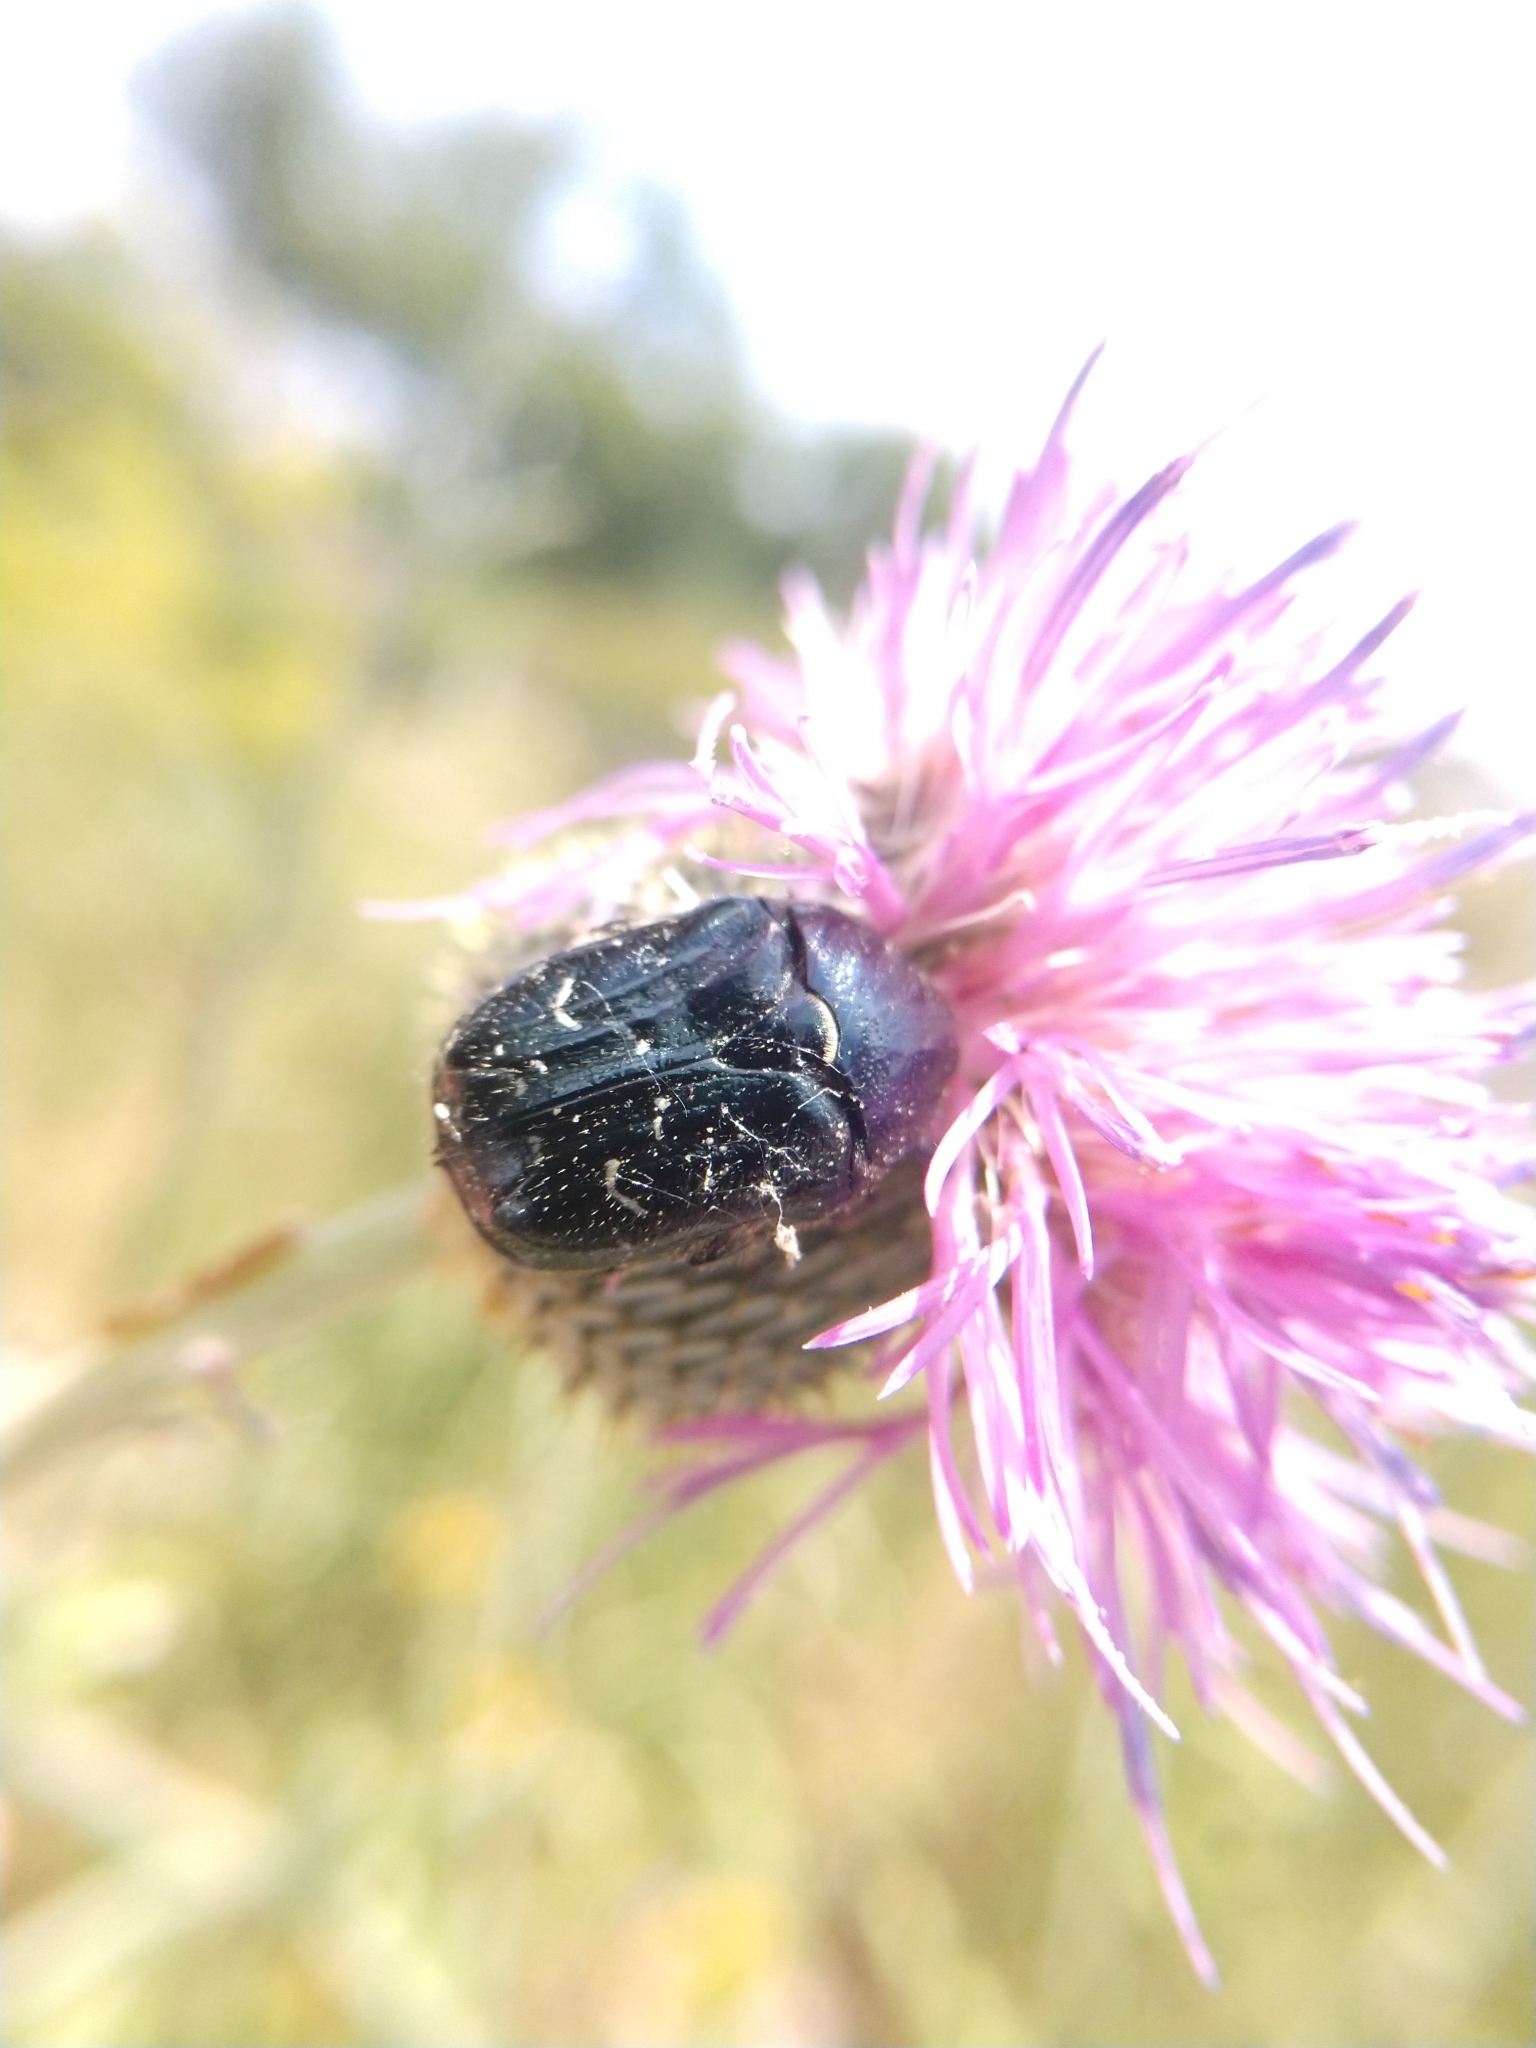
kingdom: Animalia
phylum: Arthropoda
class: Insecta
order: Coleoptera
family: Scarabaeidae
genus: Euphoria
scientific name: Euphoria sepulcralis
